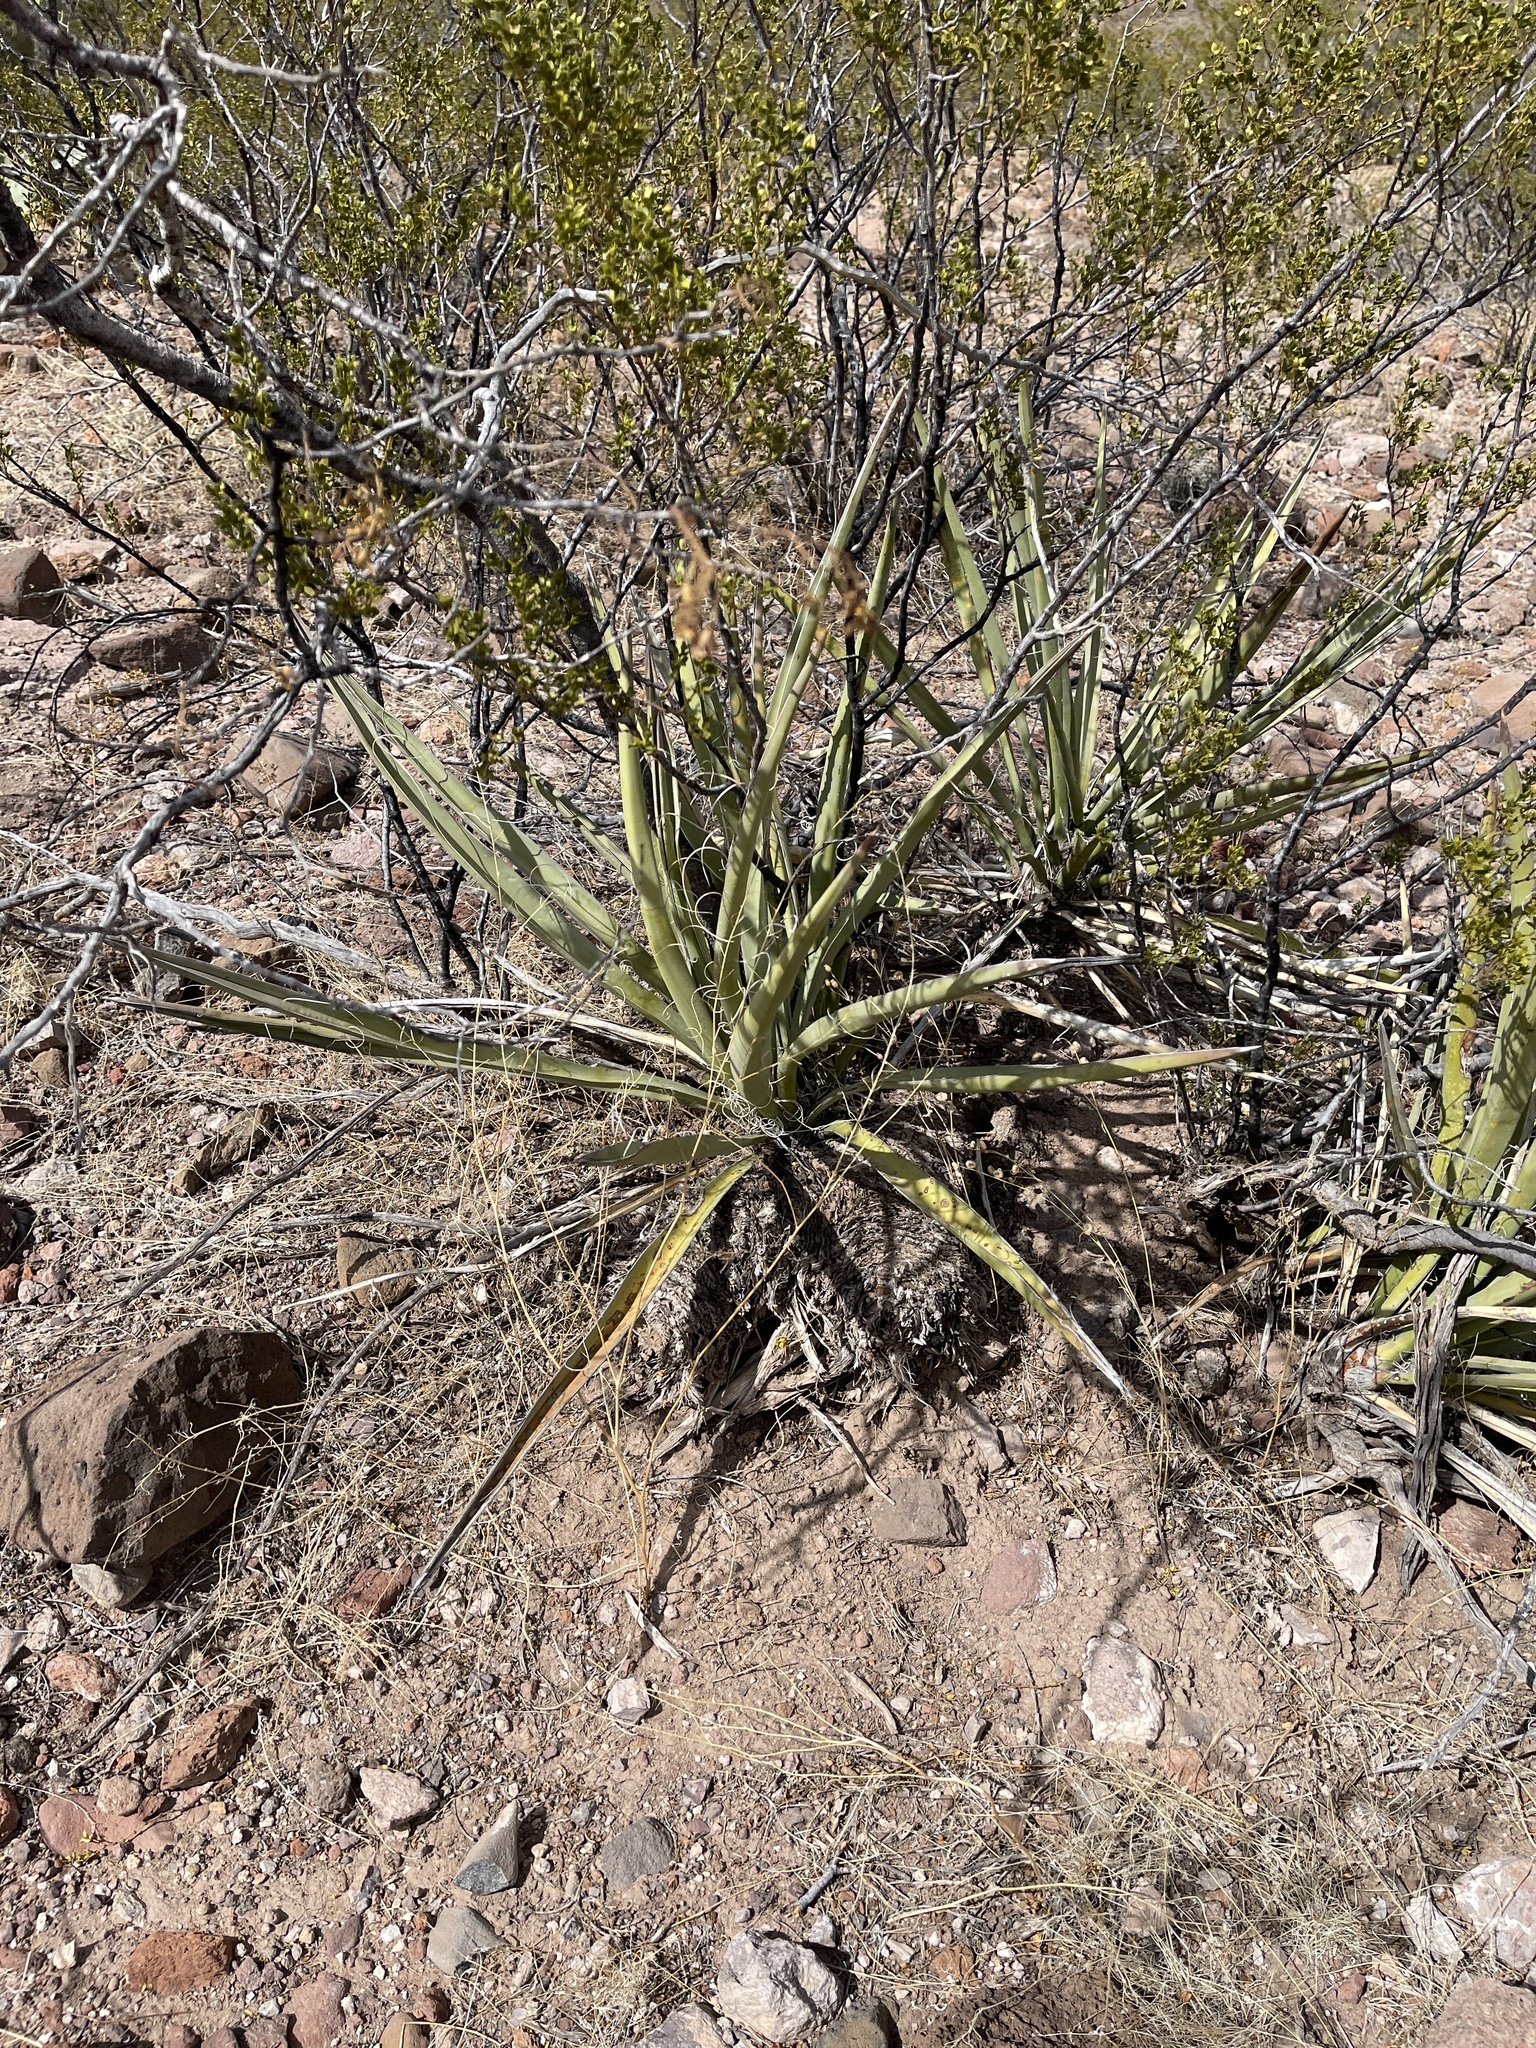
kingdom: Plantae
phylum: Tracheophyta
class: Liliopsida
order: Asparagales
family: Asparagaceae
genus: Yucca
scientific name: Yucca baccata
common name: Banana yucca
